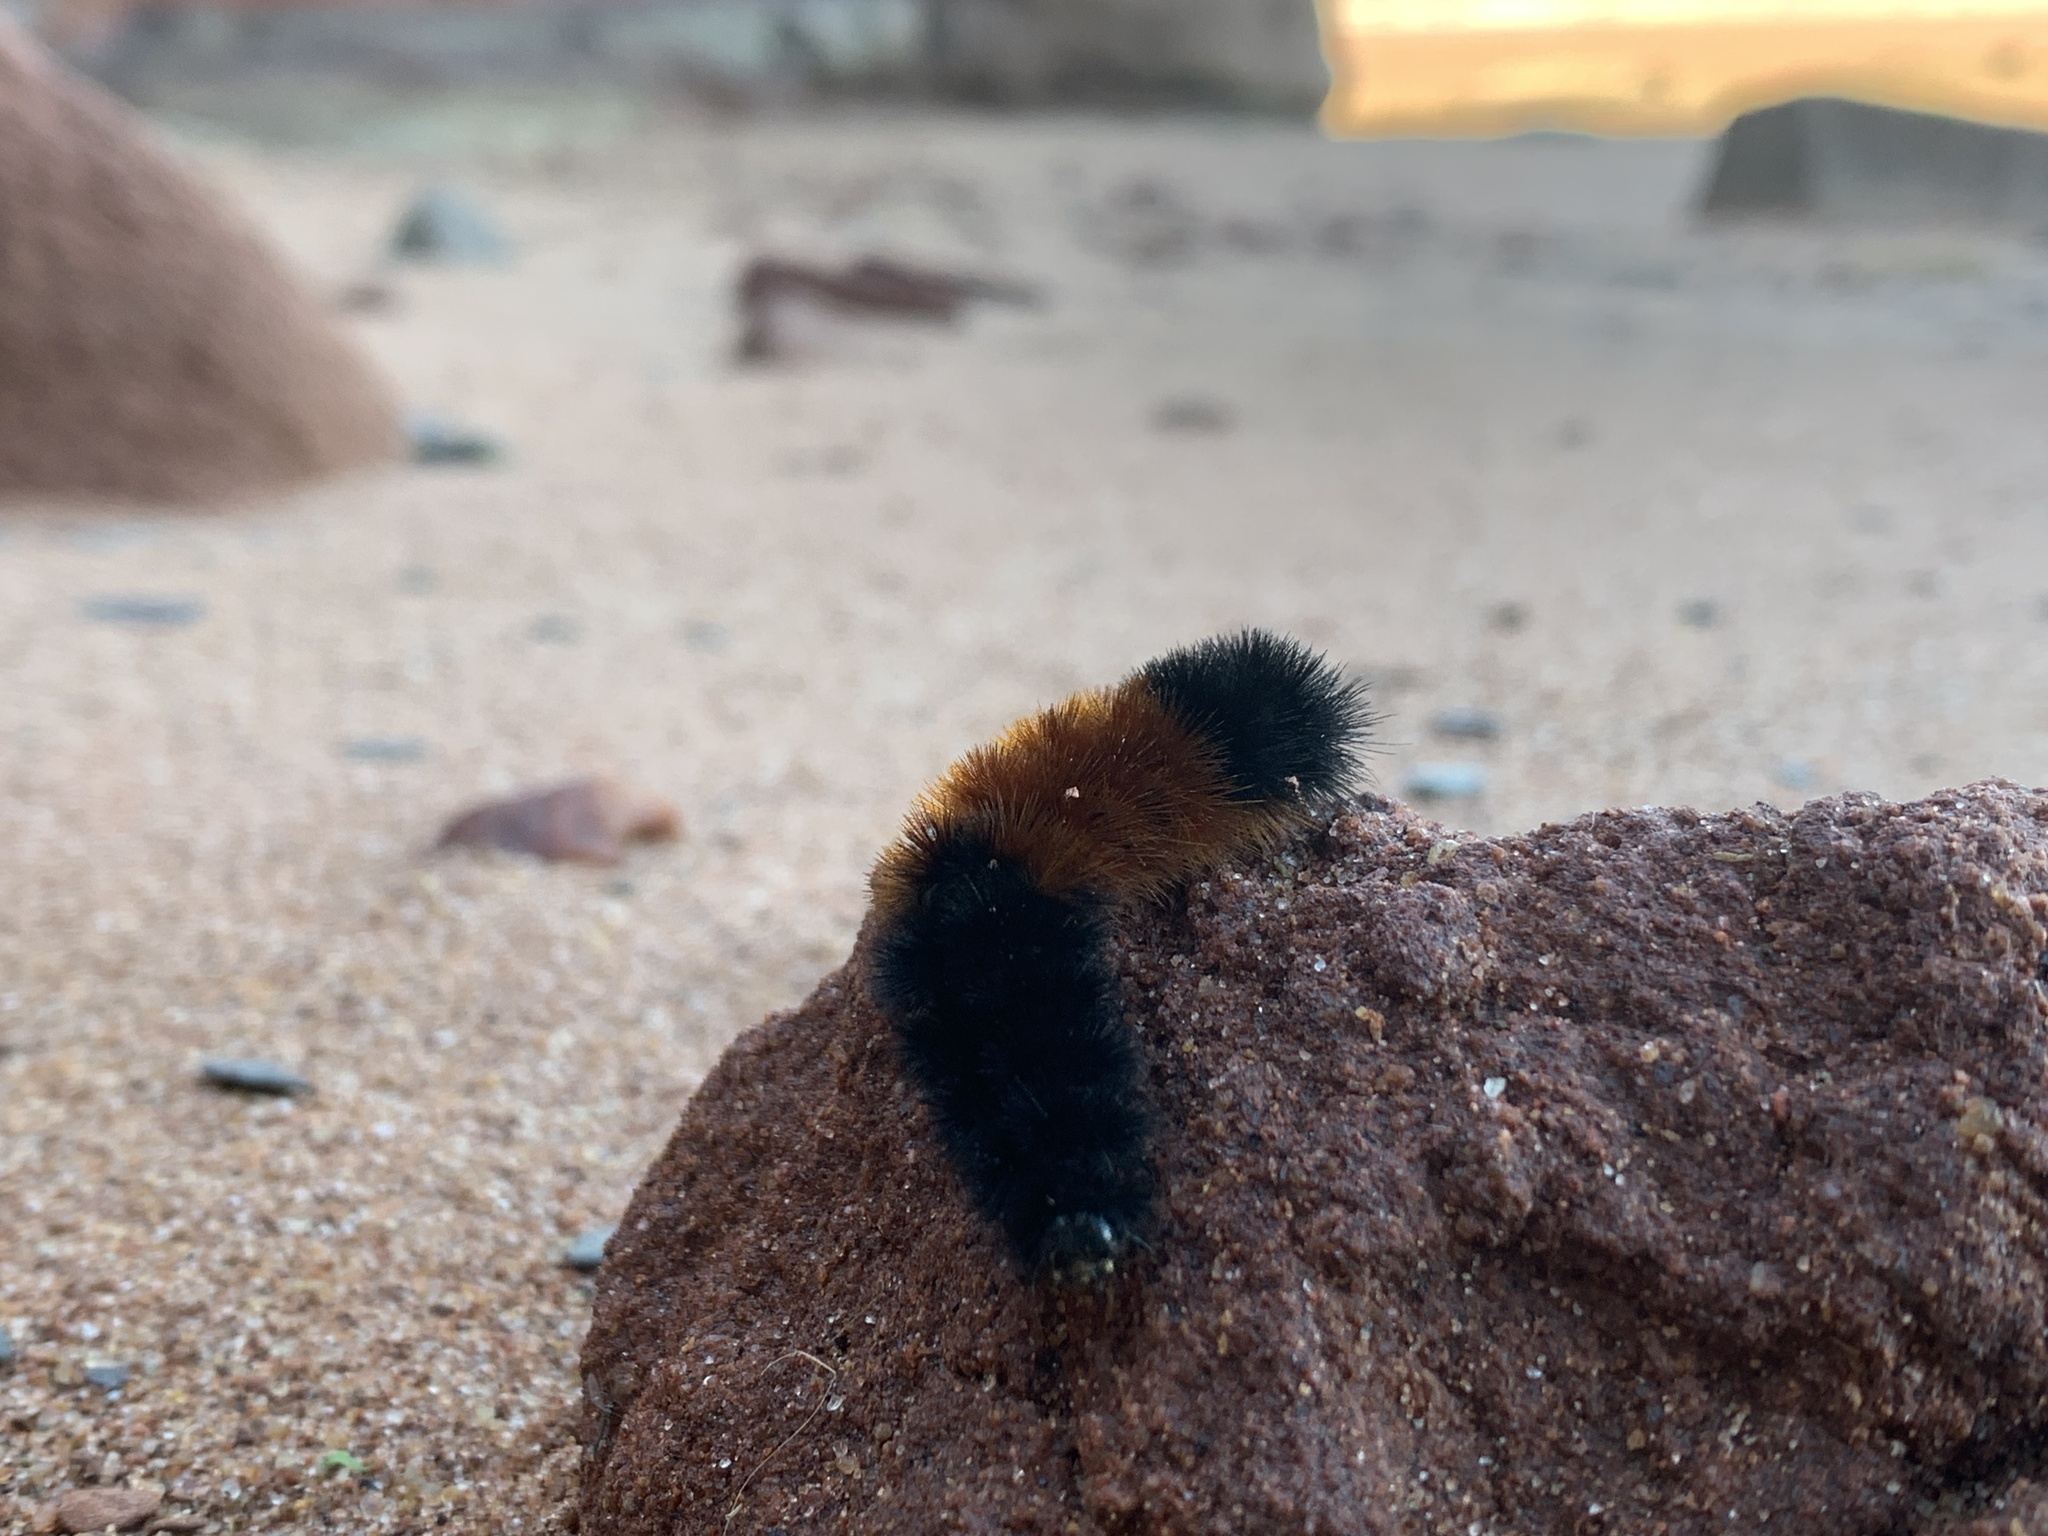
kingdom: Animalia
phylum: Arthropoda
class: Insecta
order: Lepidoptera
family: Erebidae
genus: Pyrrharctia
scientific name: Pyrrharctia isabella
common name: Isabella tiger moth
